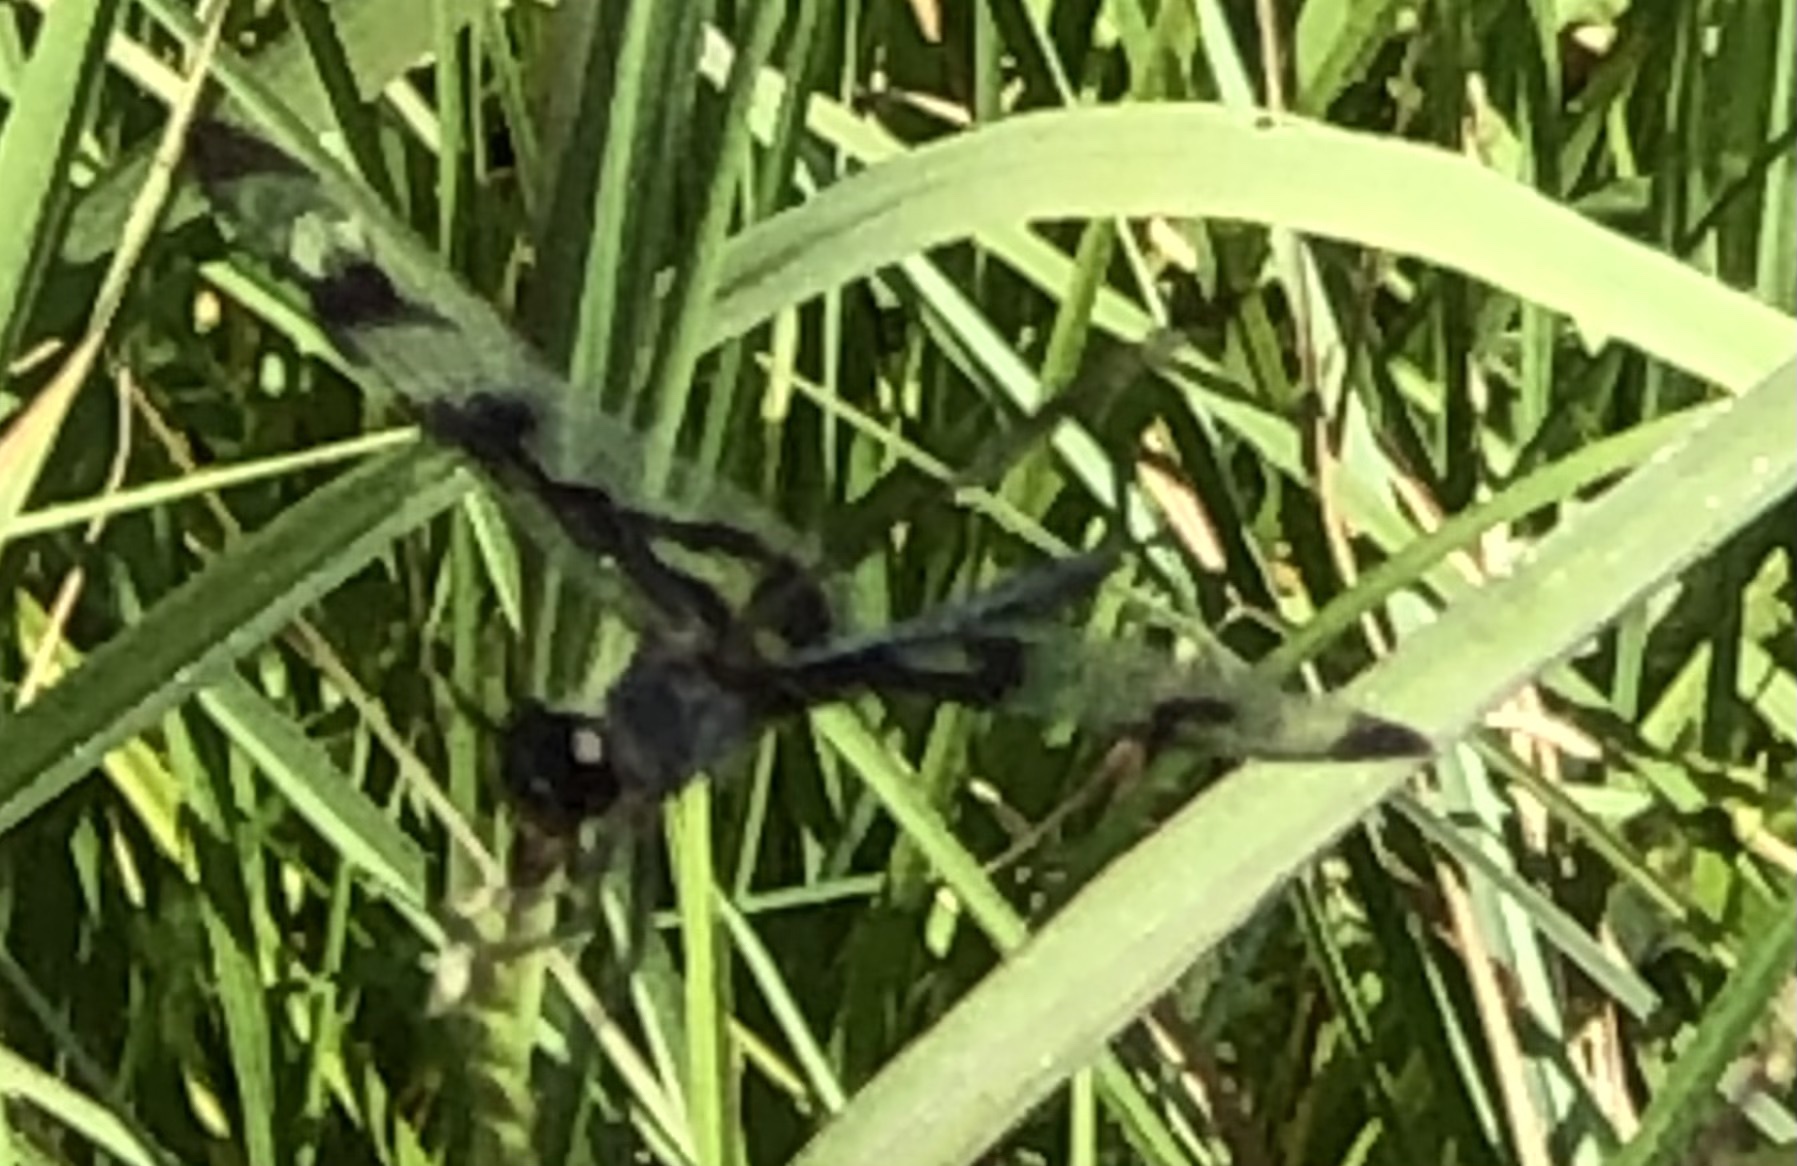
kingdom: Animalia
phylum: Arthropoda
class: Insecta
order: Odonata
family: Libellulidae
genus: Celithemis
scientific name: Celithemis fasciata
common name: Banded pennant
